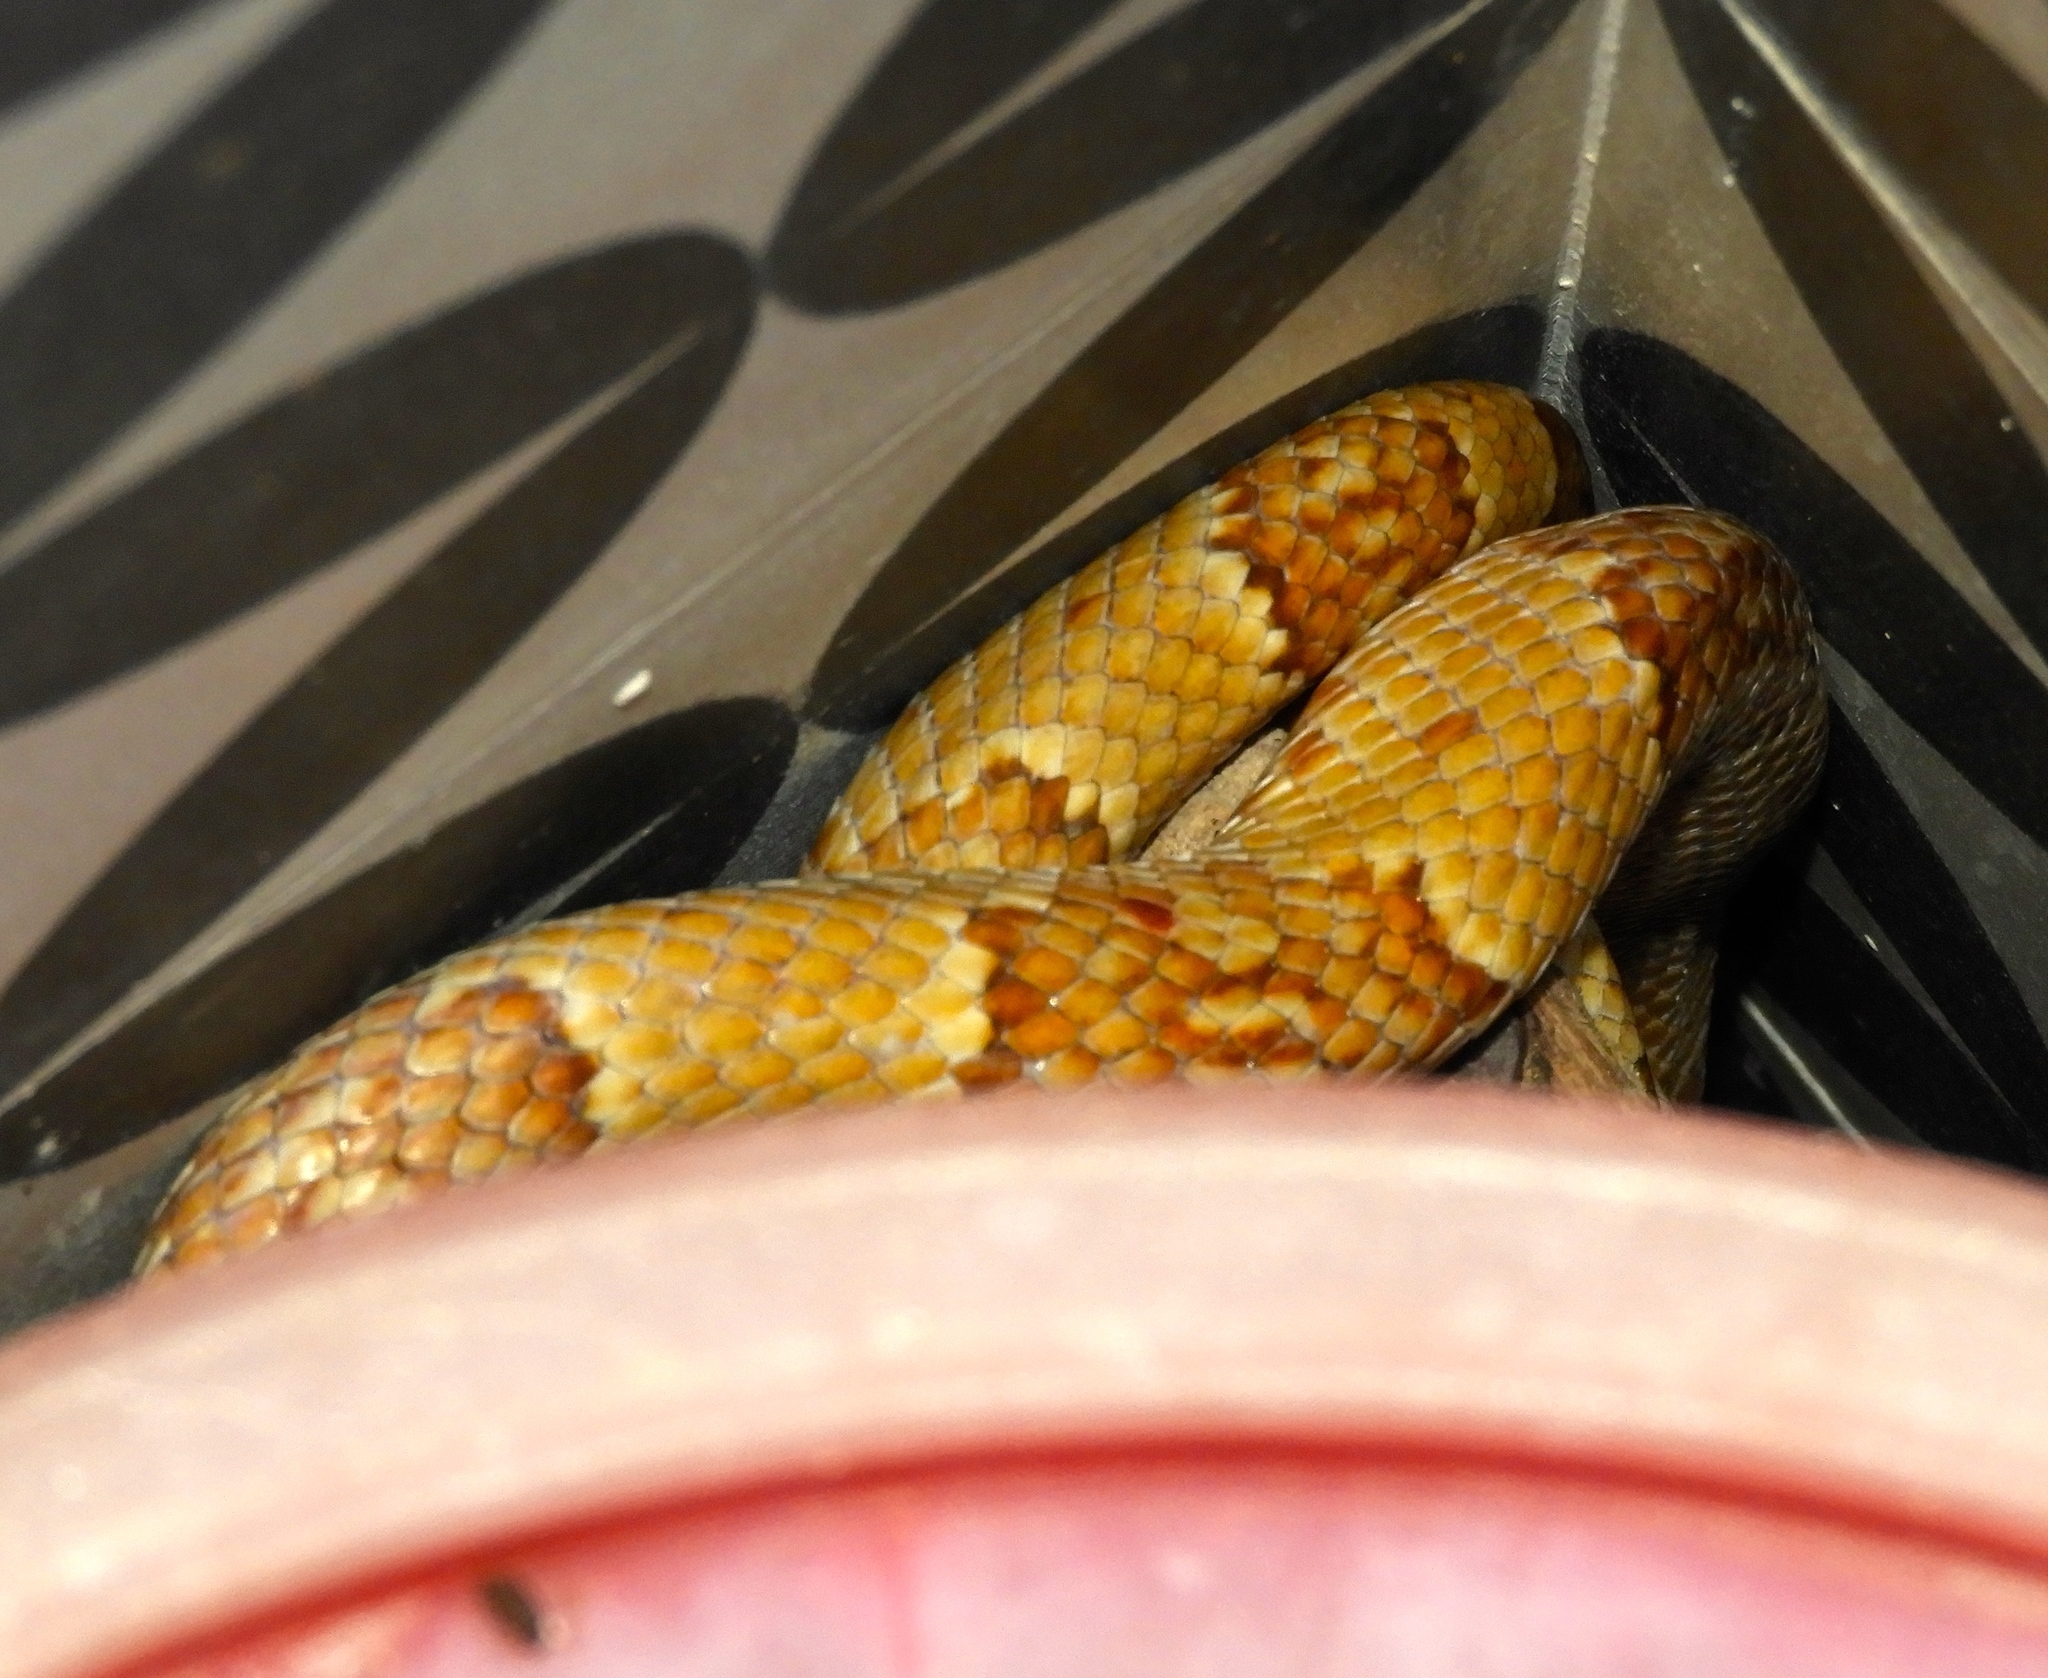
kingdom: Animalia
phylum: Chordata
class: Squamata
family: Colubridae
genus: Trimorphodon
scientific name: Trimorphodon paucimaculatus
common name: Sinaloan lyresnake
